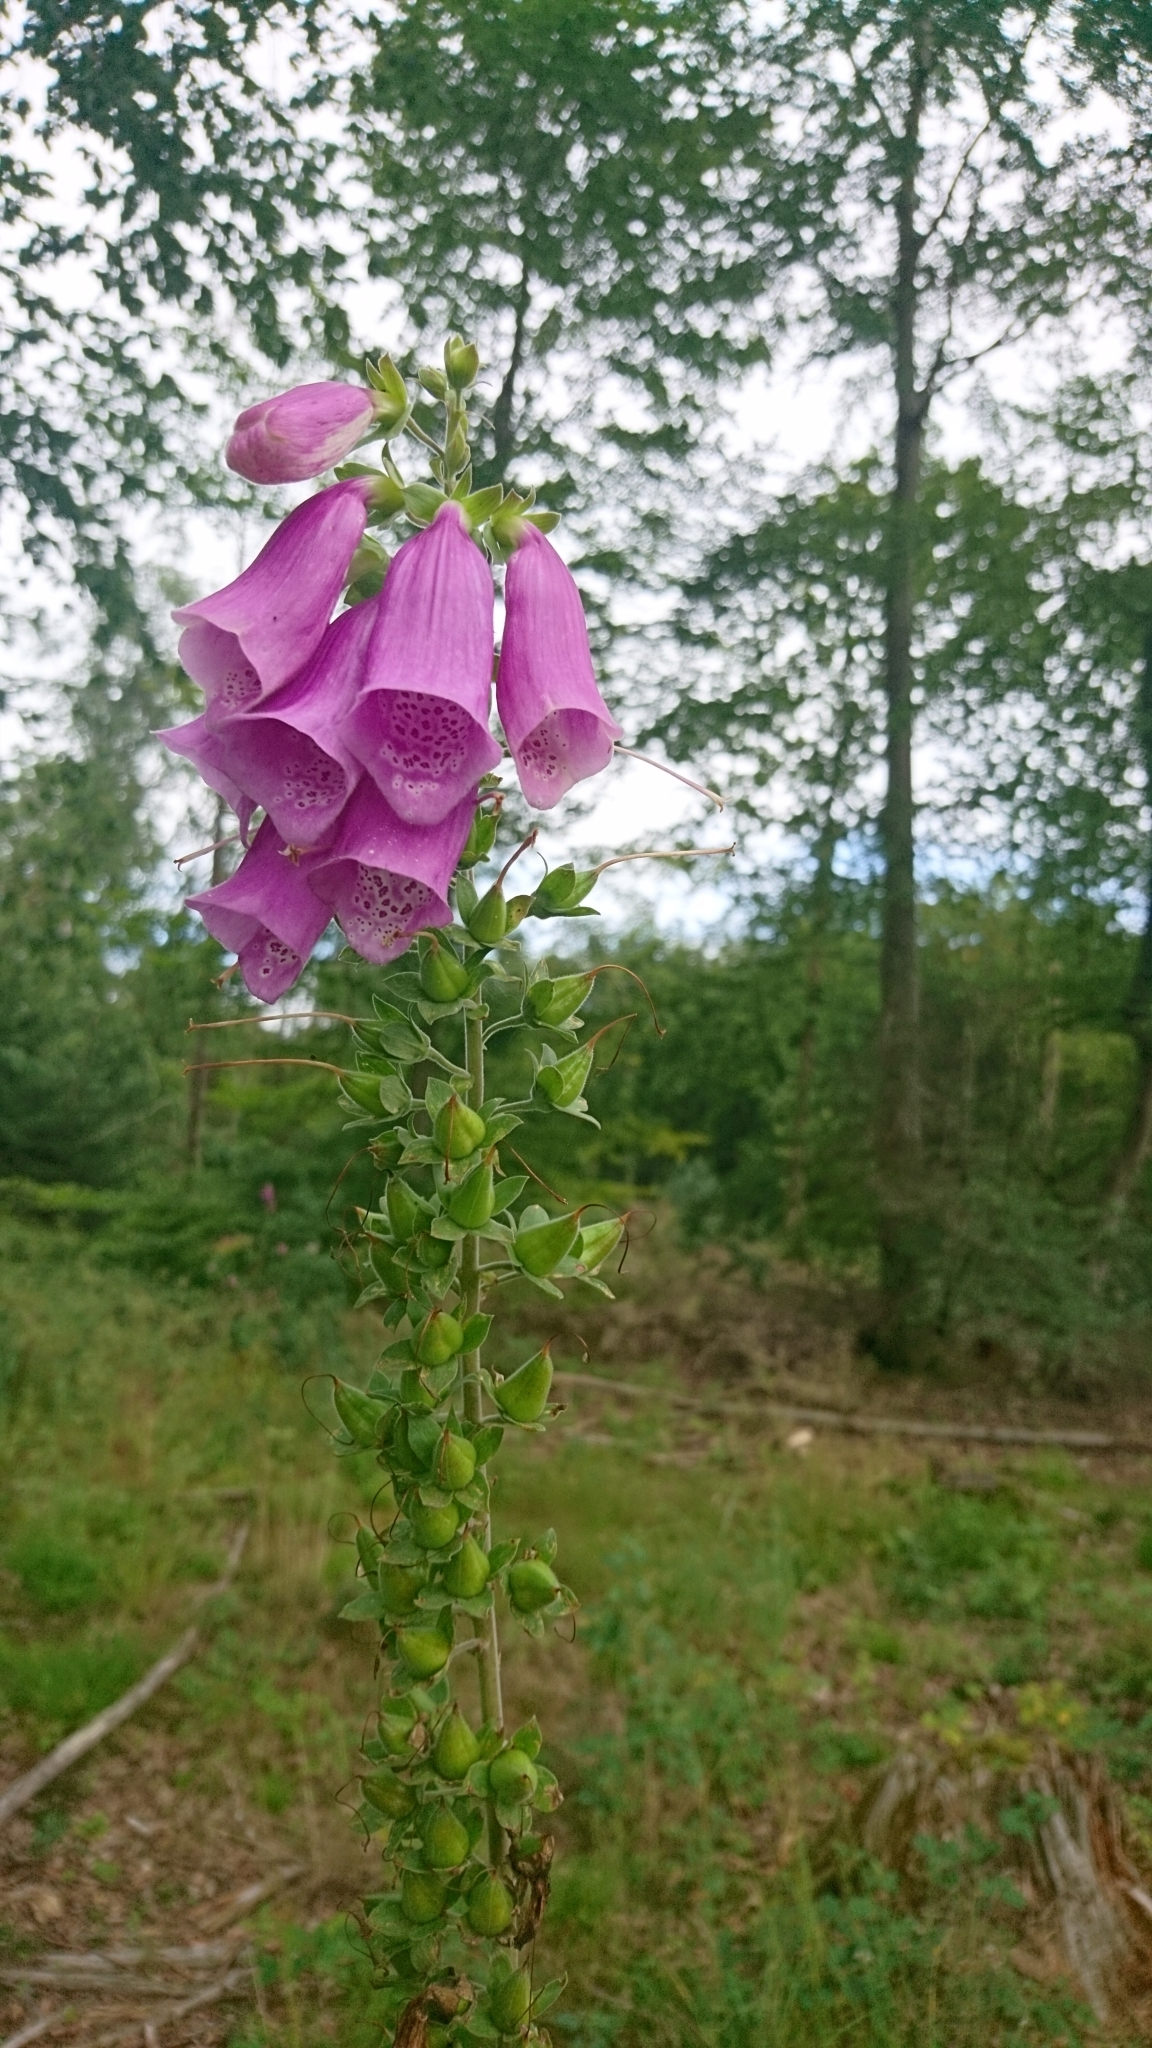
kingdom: Plantae
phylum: Tracheophyta
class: Magnoliopsida
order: Lamiales
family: Plantaginaceae
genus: Digitalis
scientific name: Digitalis purpurea
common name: Foxglove
